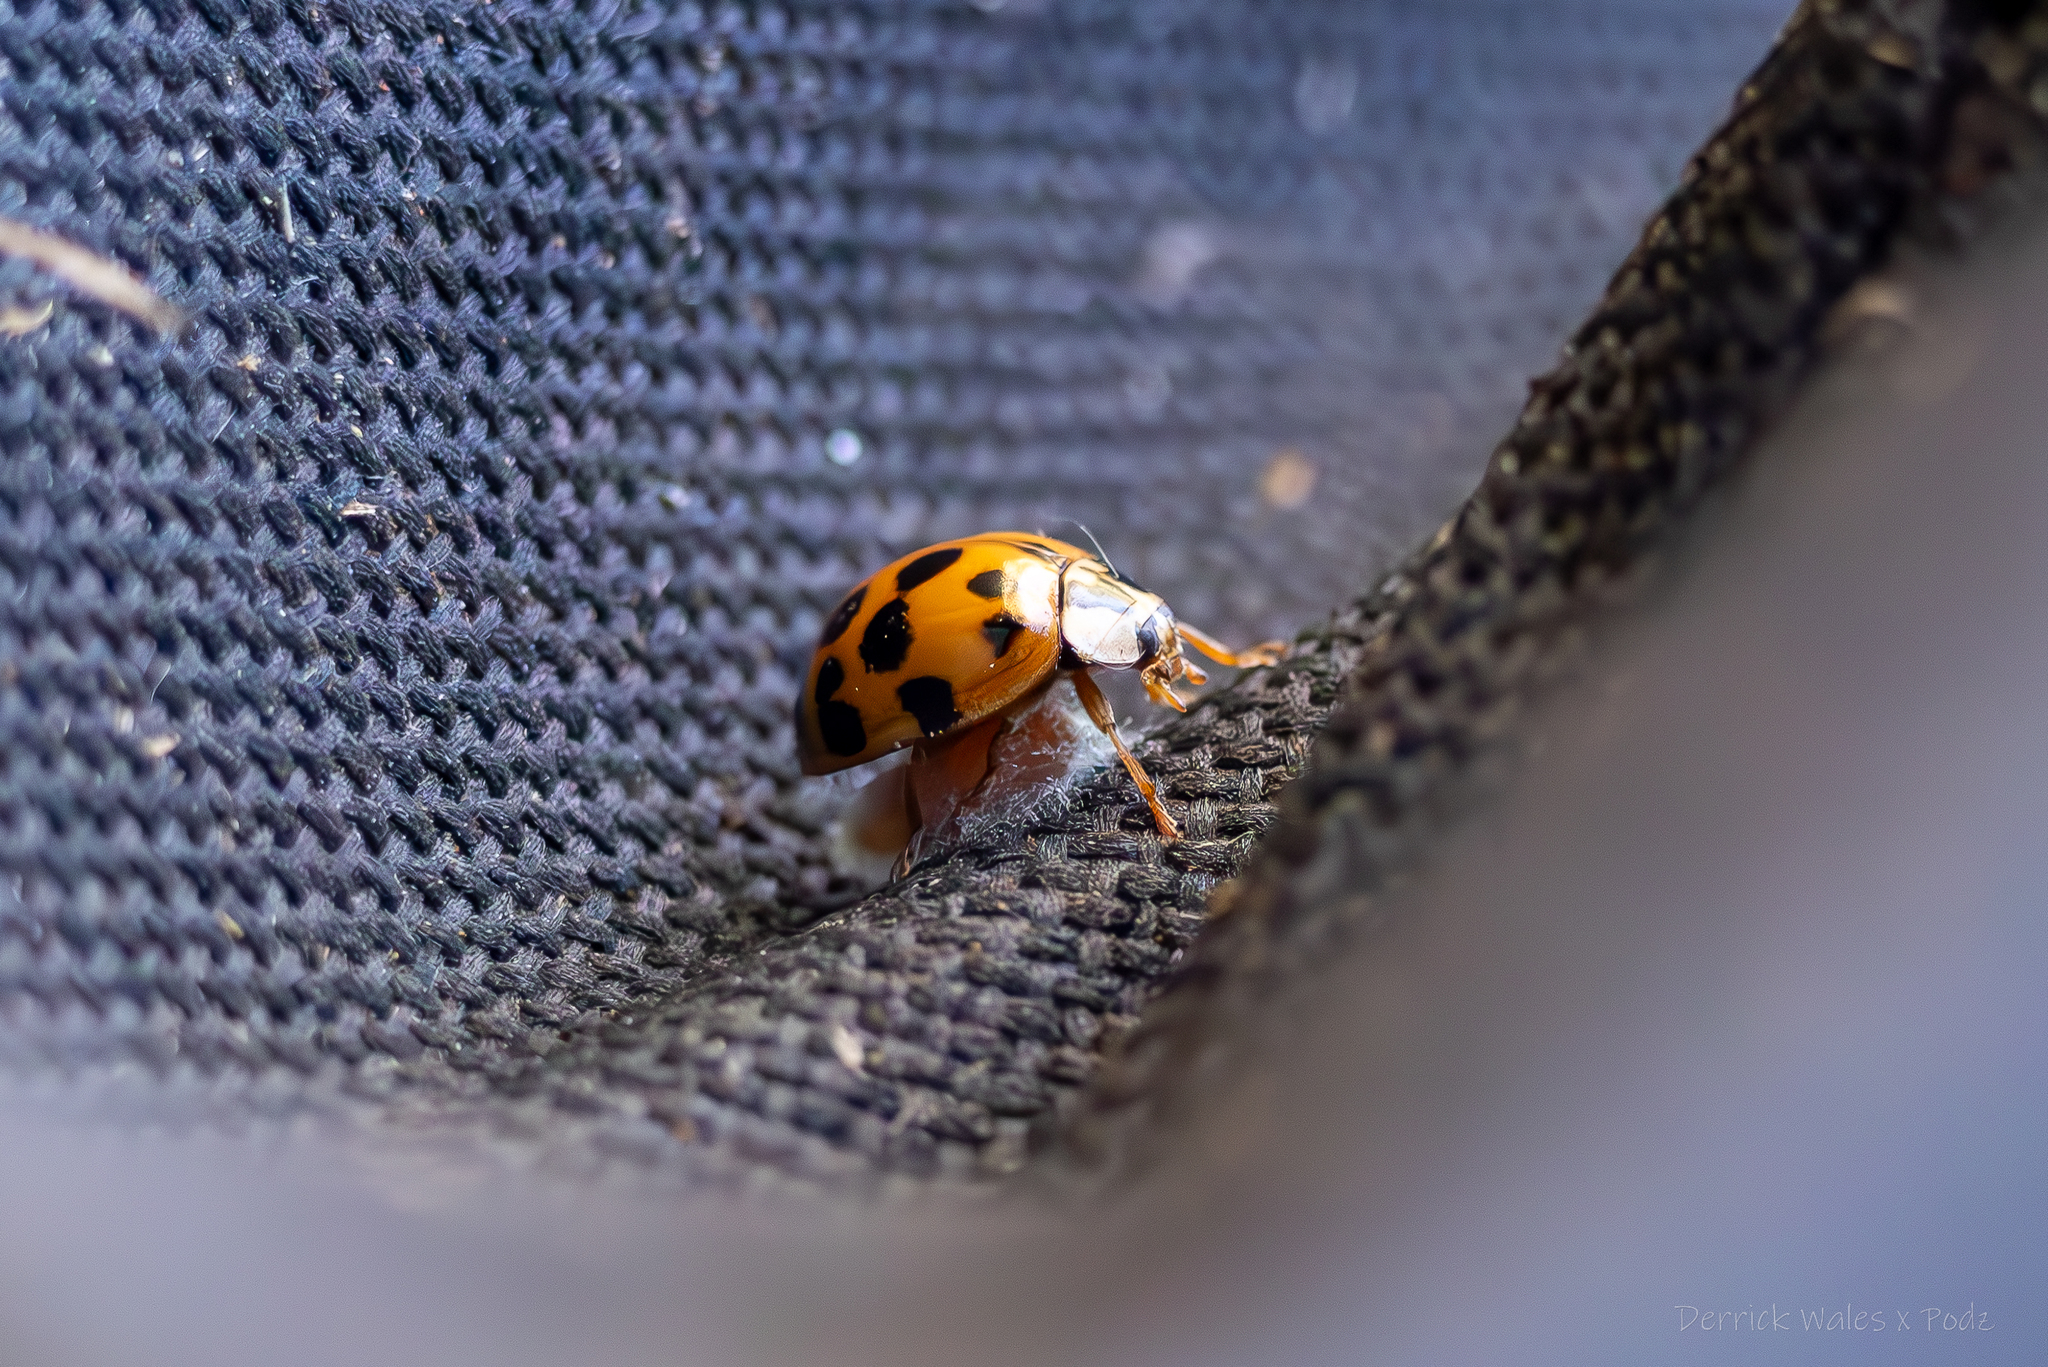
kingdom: Viruses
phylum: Pisuviricota
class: Pisoniviricetes
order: Picornavirales
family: Iflaviridae
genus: Iflavirus
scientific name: Iflavirus dinococcinellae
